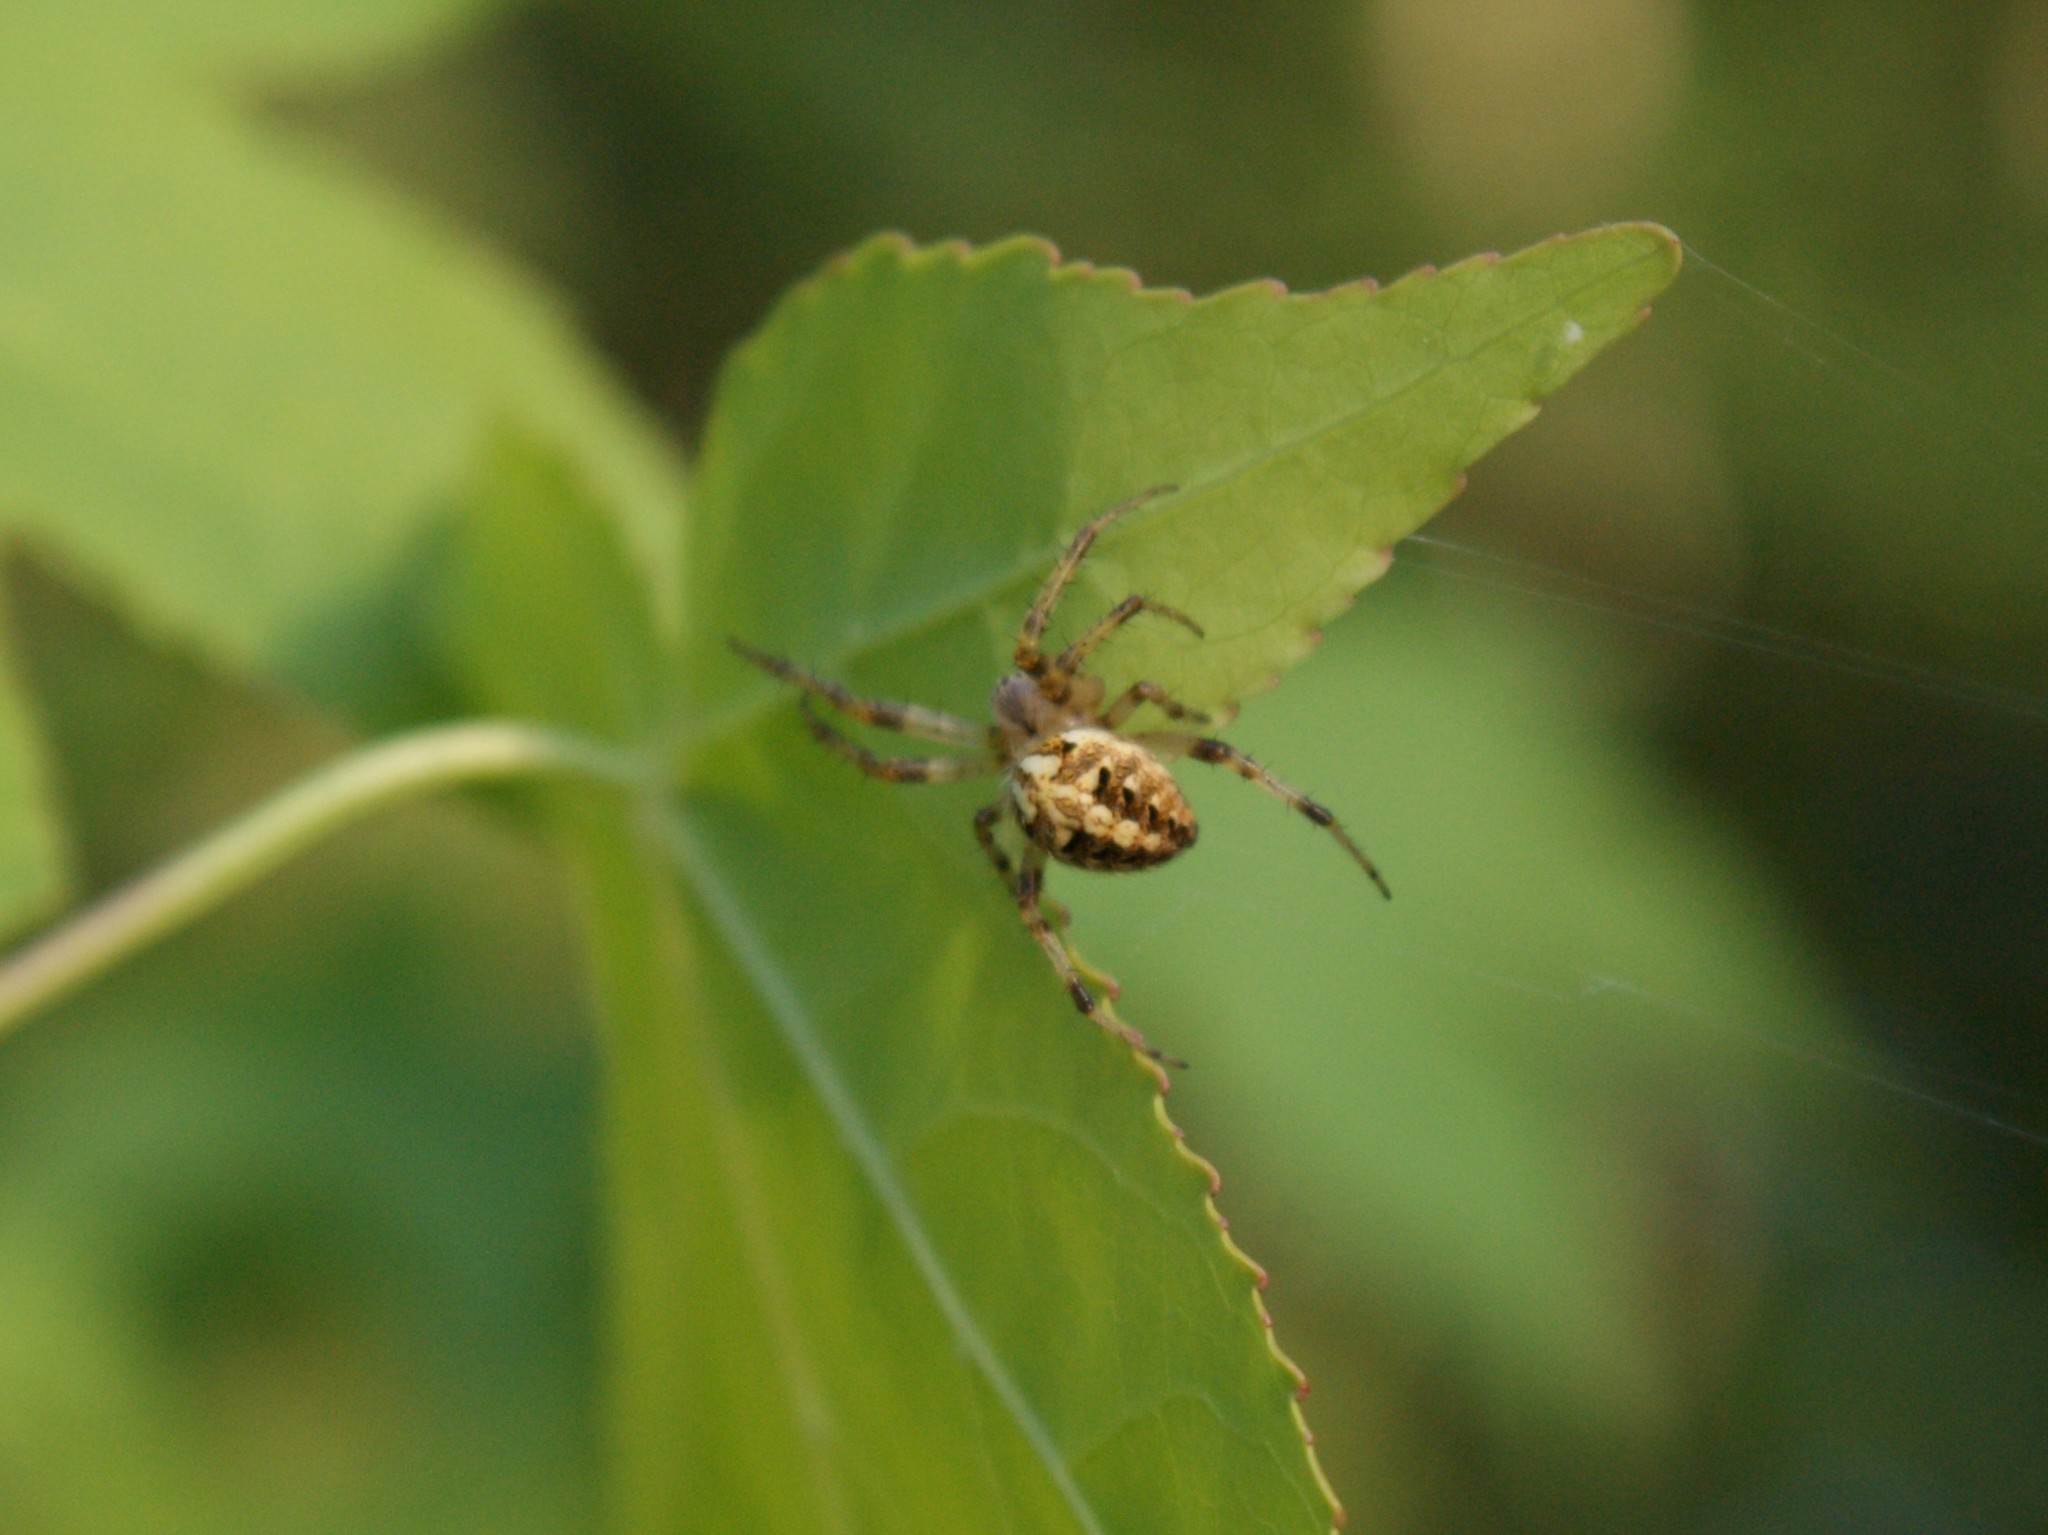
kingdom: Animalia
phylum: Arthropoda
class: Arachnida
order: Araneae
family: Araneidae
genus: Neoscona
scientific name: Neoscona arabesca
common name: Orb weavers
